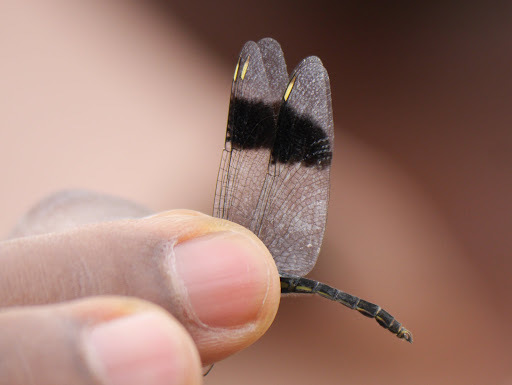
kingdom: Animalia
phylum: Arthropoda
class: Insecta
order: Odonata
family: Libellulidae
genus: Brachythemis
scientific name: Brachythemis leucosticta
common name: Banded groundling
